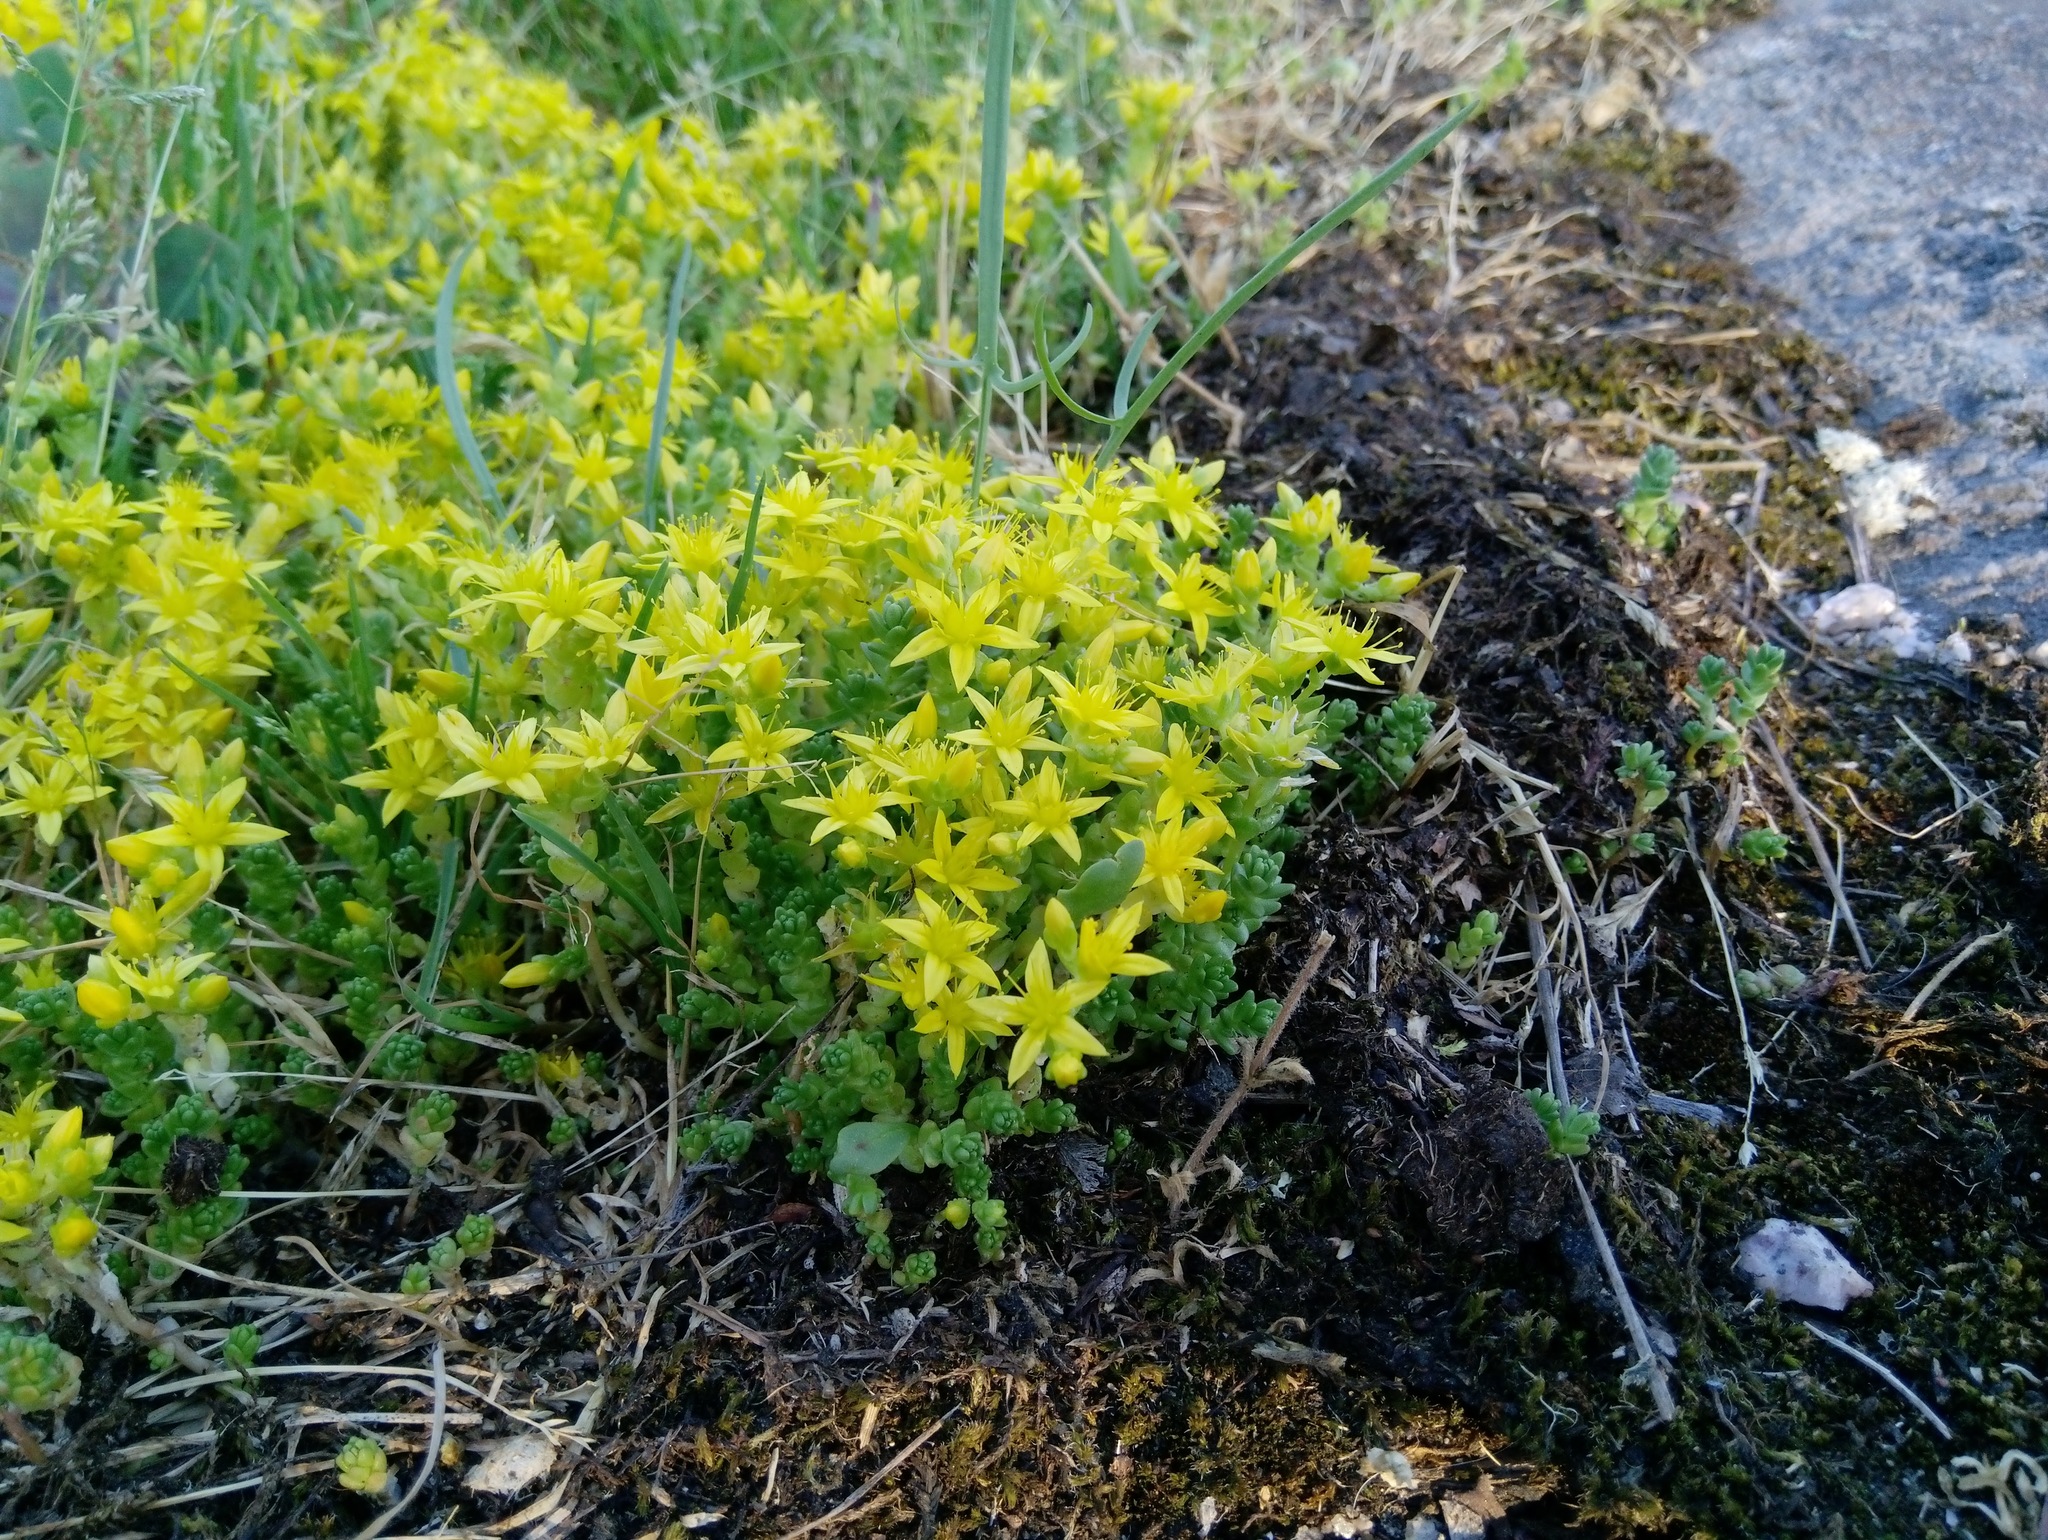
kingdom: Plantae
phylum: Tracheophyta
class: Magnoliopsida
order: Saxifragales
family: Crassulaceae
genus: Sedum
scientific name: Sedum acre
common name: Biting stonecrop
